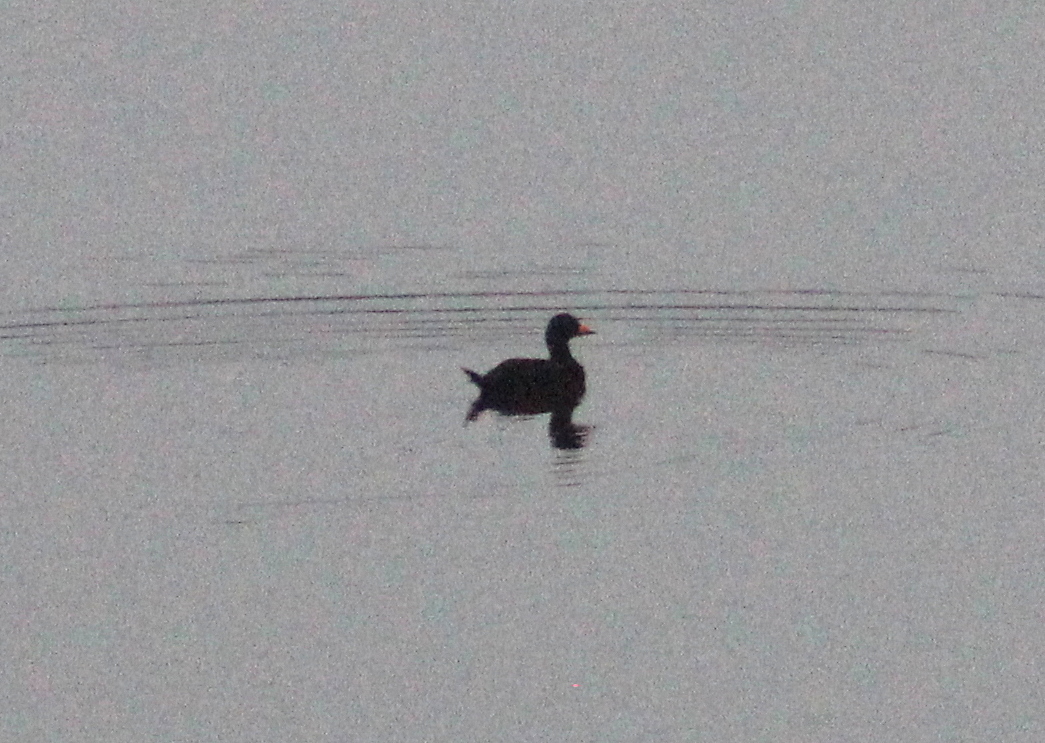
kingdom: Animalia
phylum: Chordata
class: Aves
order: Anseriformes
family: Anatidae
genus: Melanitta
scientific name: Melanitta americana
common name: Black scoter
